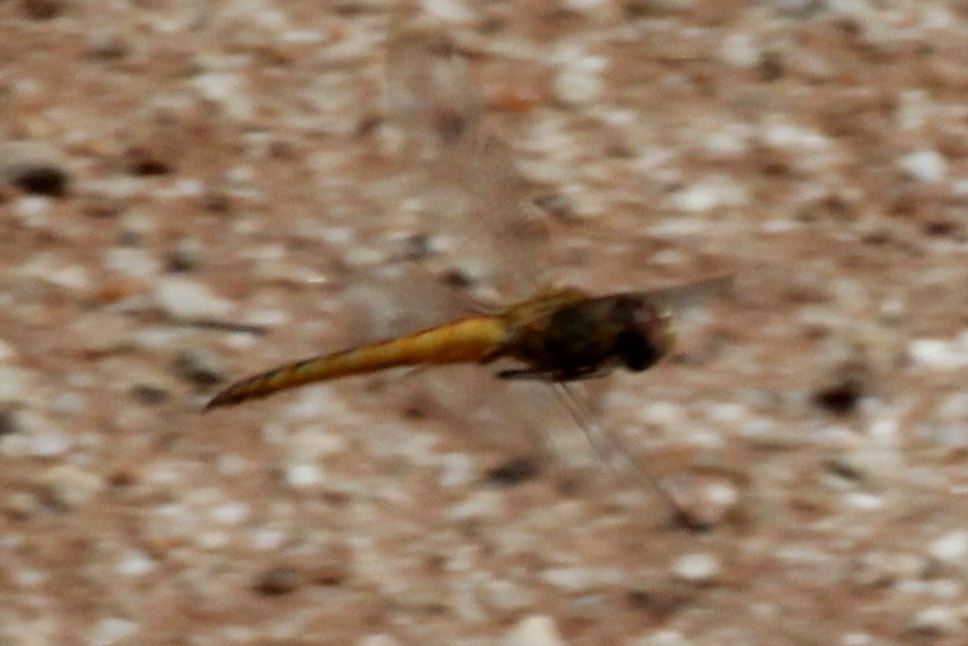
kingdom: Animalia
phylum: Arthropoda
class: Insecta
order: Odonata
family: Libellulidae
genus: Pantala
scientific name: Pantala flavescens
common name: Wandering glider
